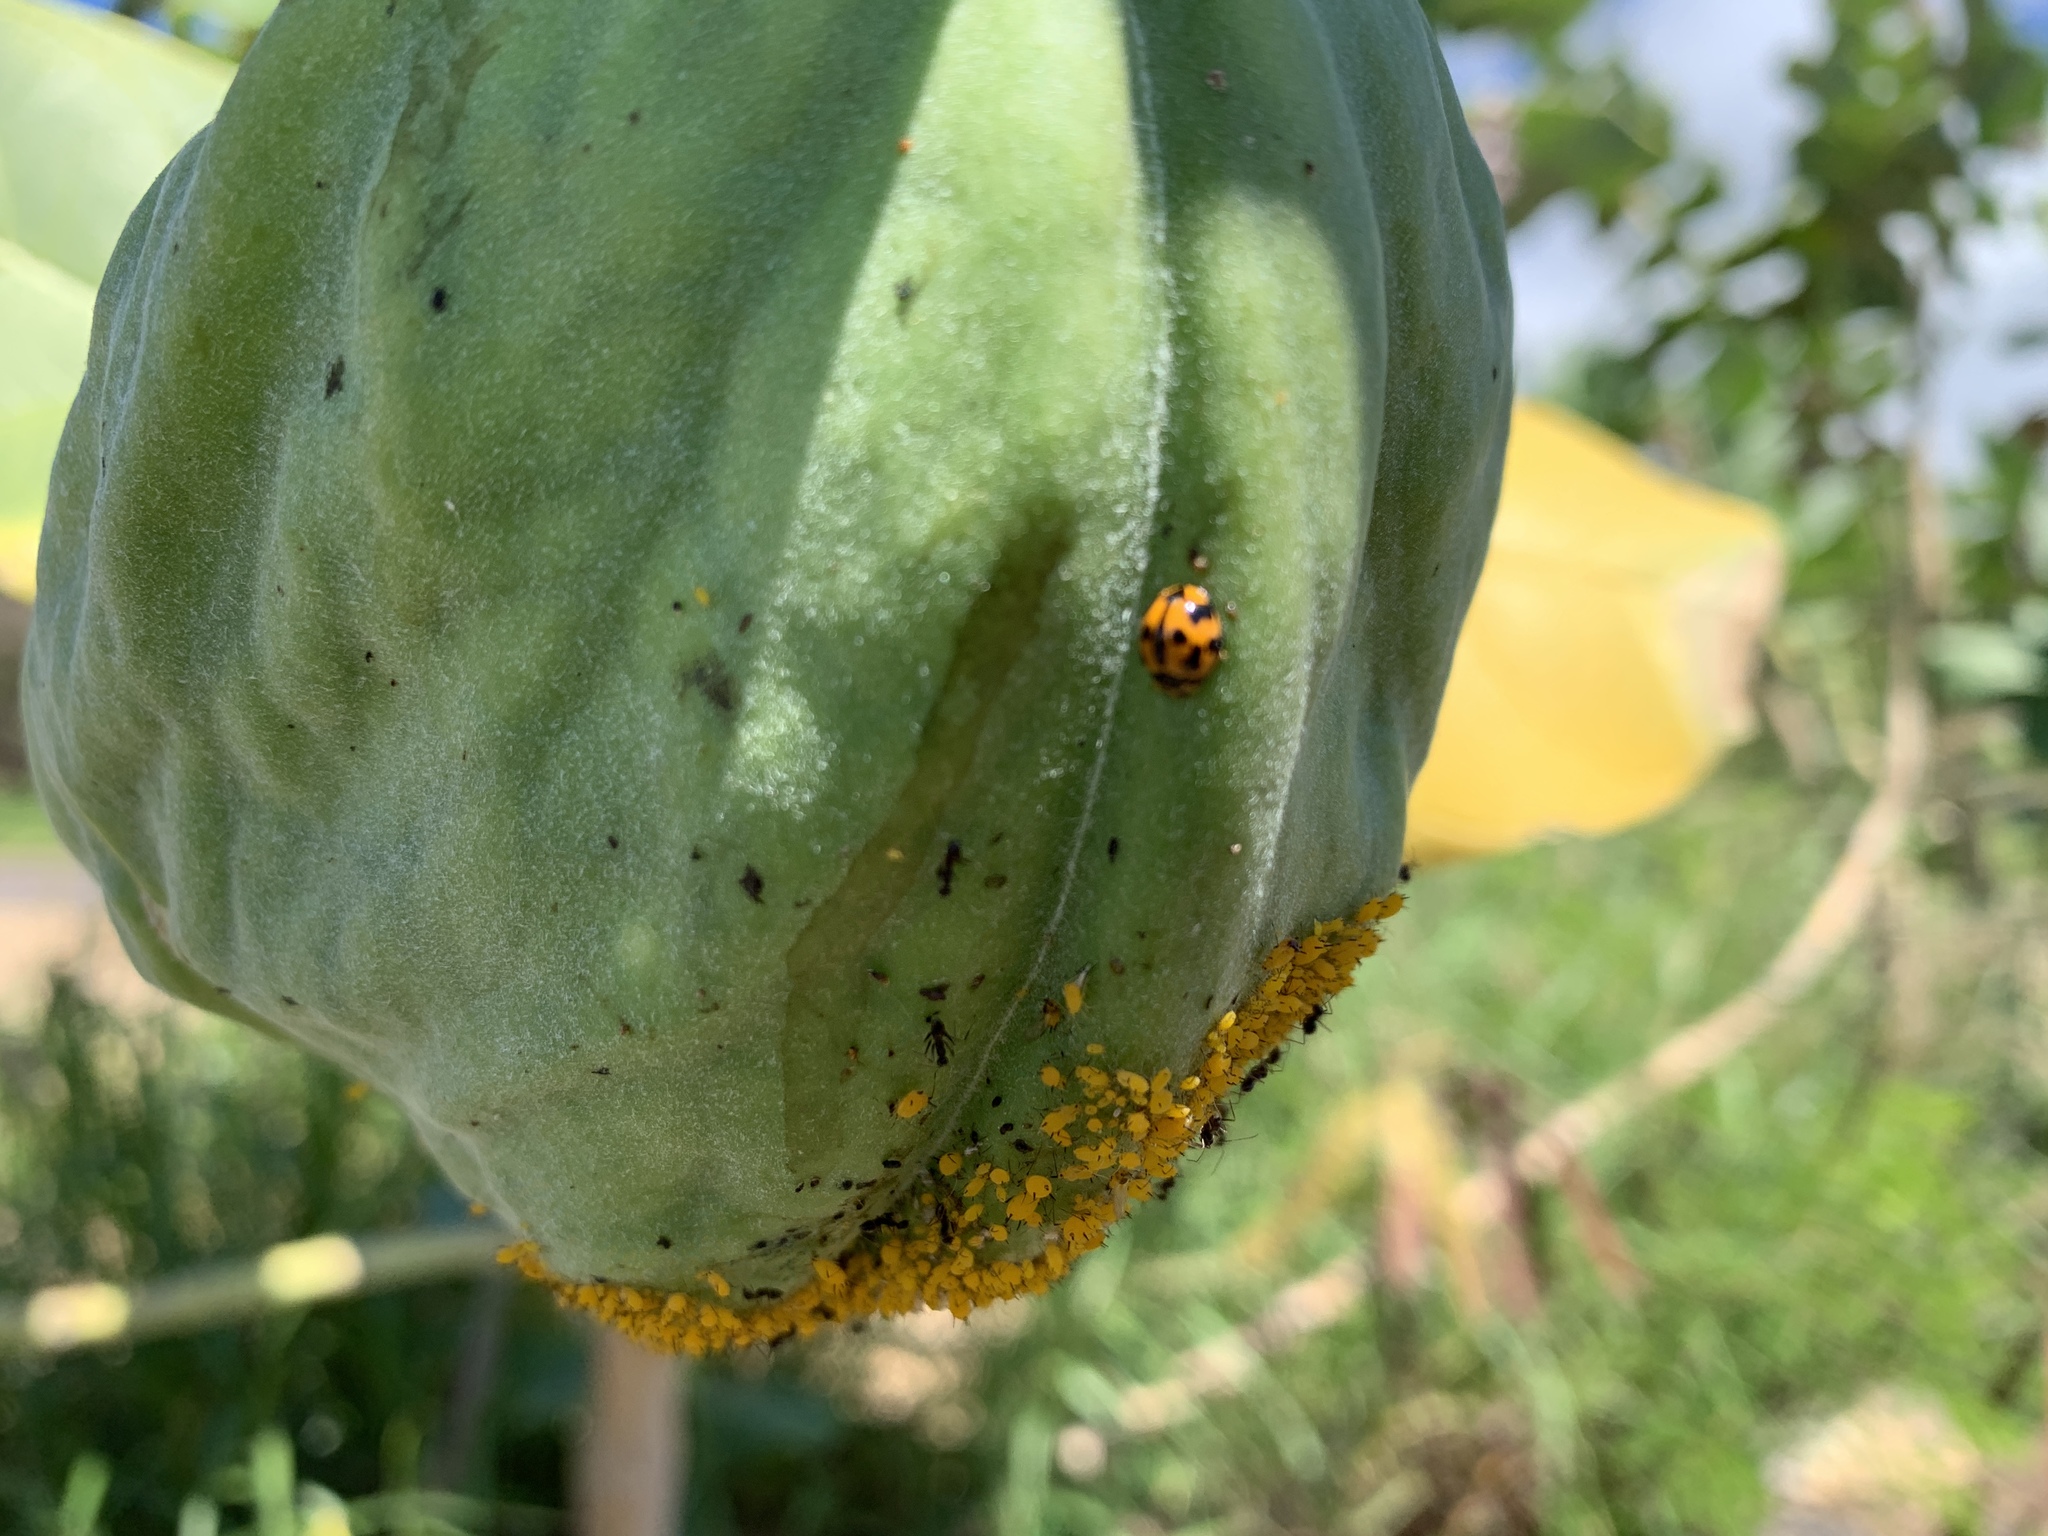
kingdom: Plantae
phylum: Tracheophyta
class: Magnoliopsida
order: Gentianales
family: Apocynaceae
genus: Calotropis
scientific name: Calotropis procera
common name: Roostertree
